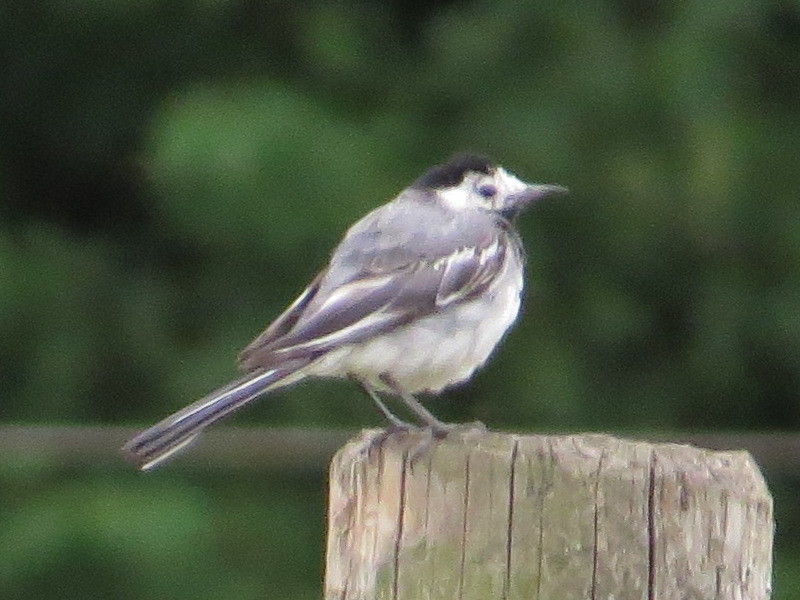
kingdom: Animalia
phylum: Chordata
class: Aves
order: Passeriformes
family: Motacillidae
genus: Motacilla
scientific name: Motacilla alba
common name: White wagtail
